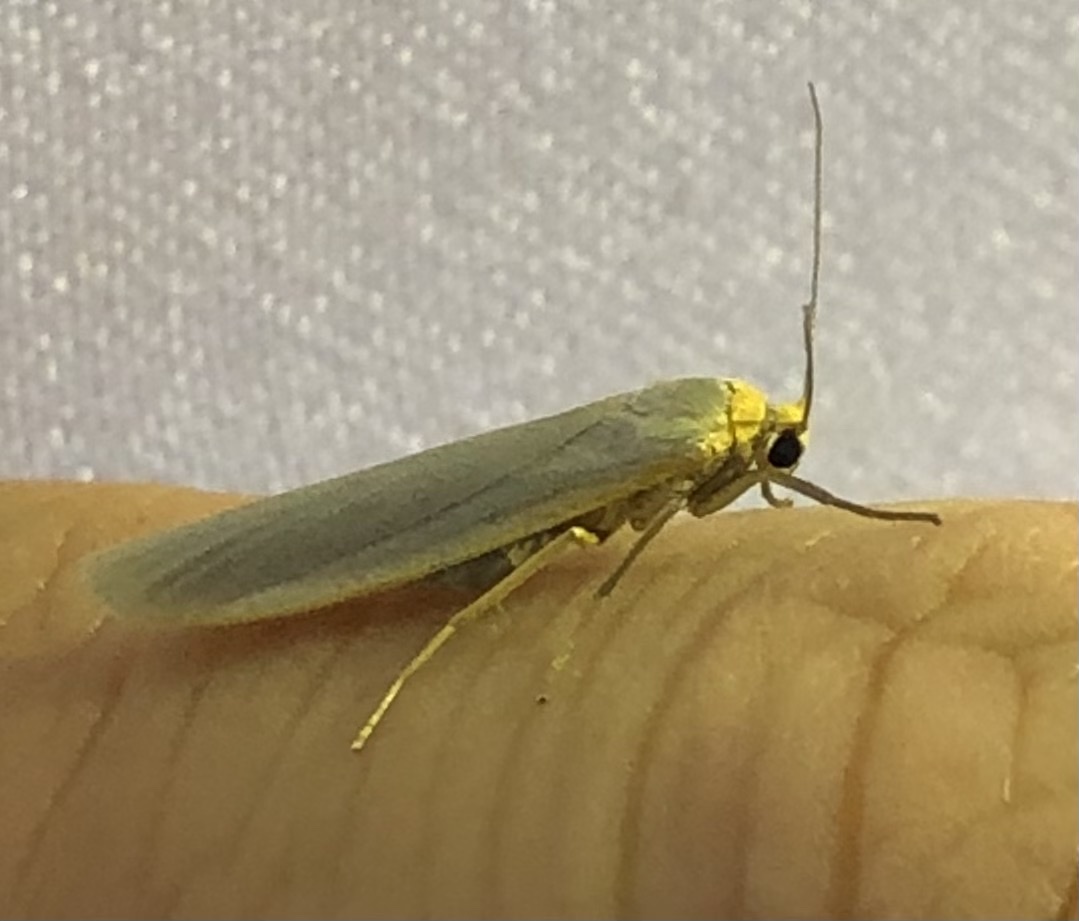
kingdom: Animalia
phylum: Arthropoda
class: Insecta
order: Lepidoptera
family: Erebidae
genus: Eilema
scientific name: Eilema caniola
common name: Hoary footman
